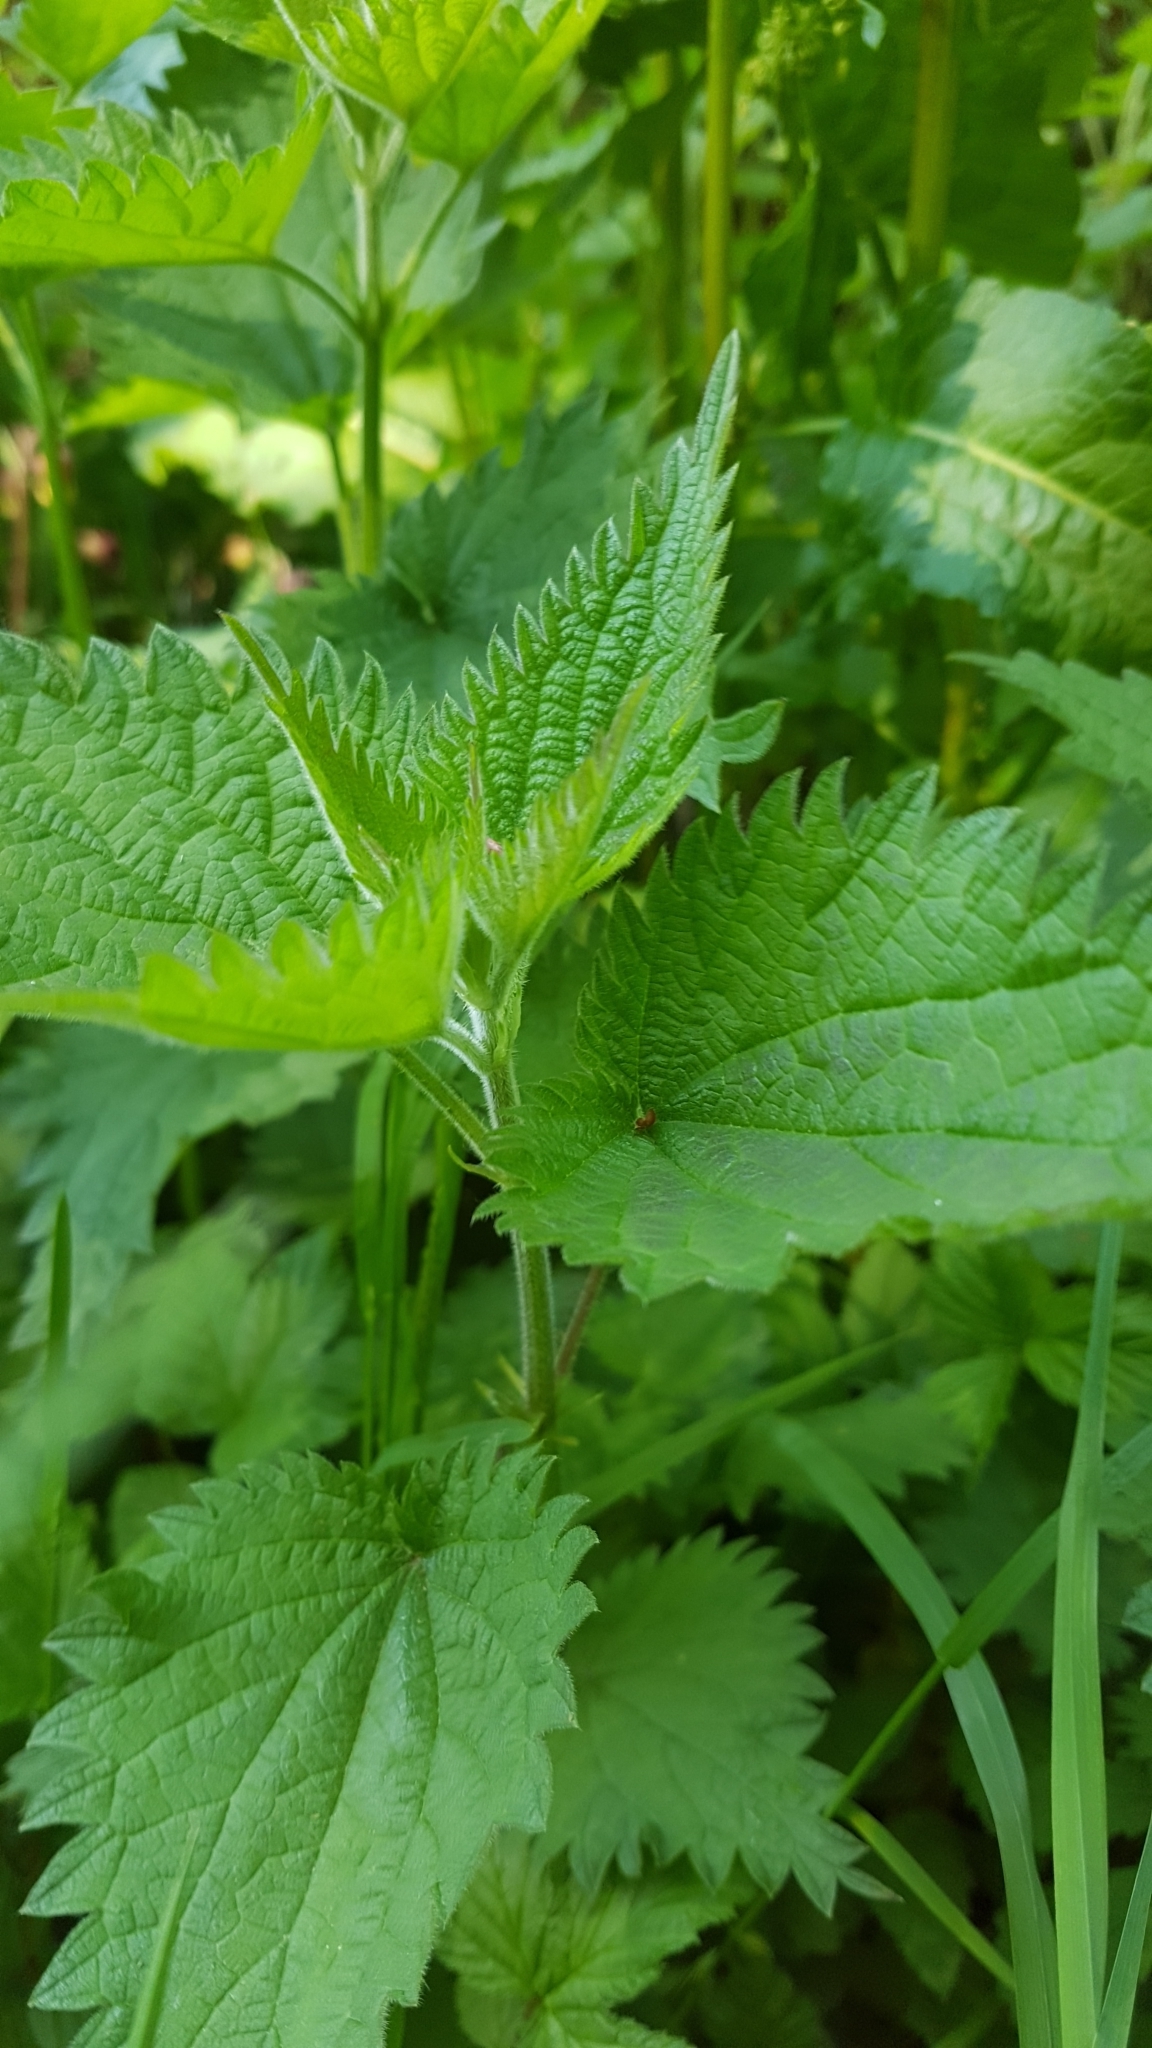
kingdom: Plantae
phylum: Tracheophyta
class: Magnoliopsida
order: Rosales
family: Urticaceae
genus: Urtica
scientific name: Urtica dioica
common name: Common nettle
